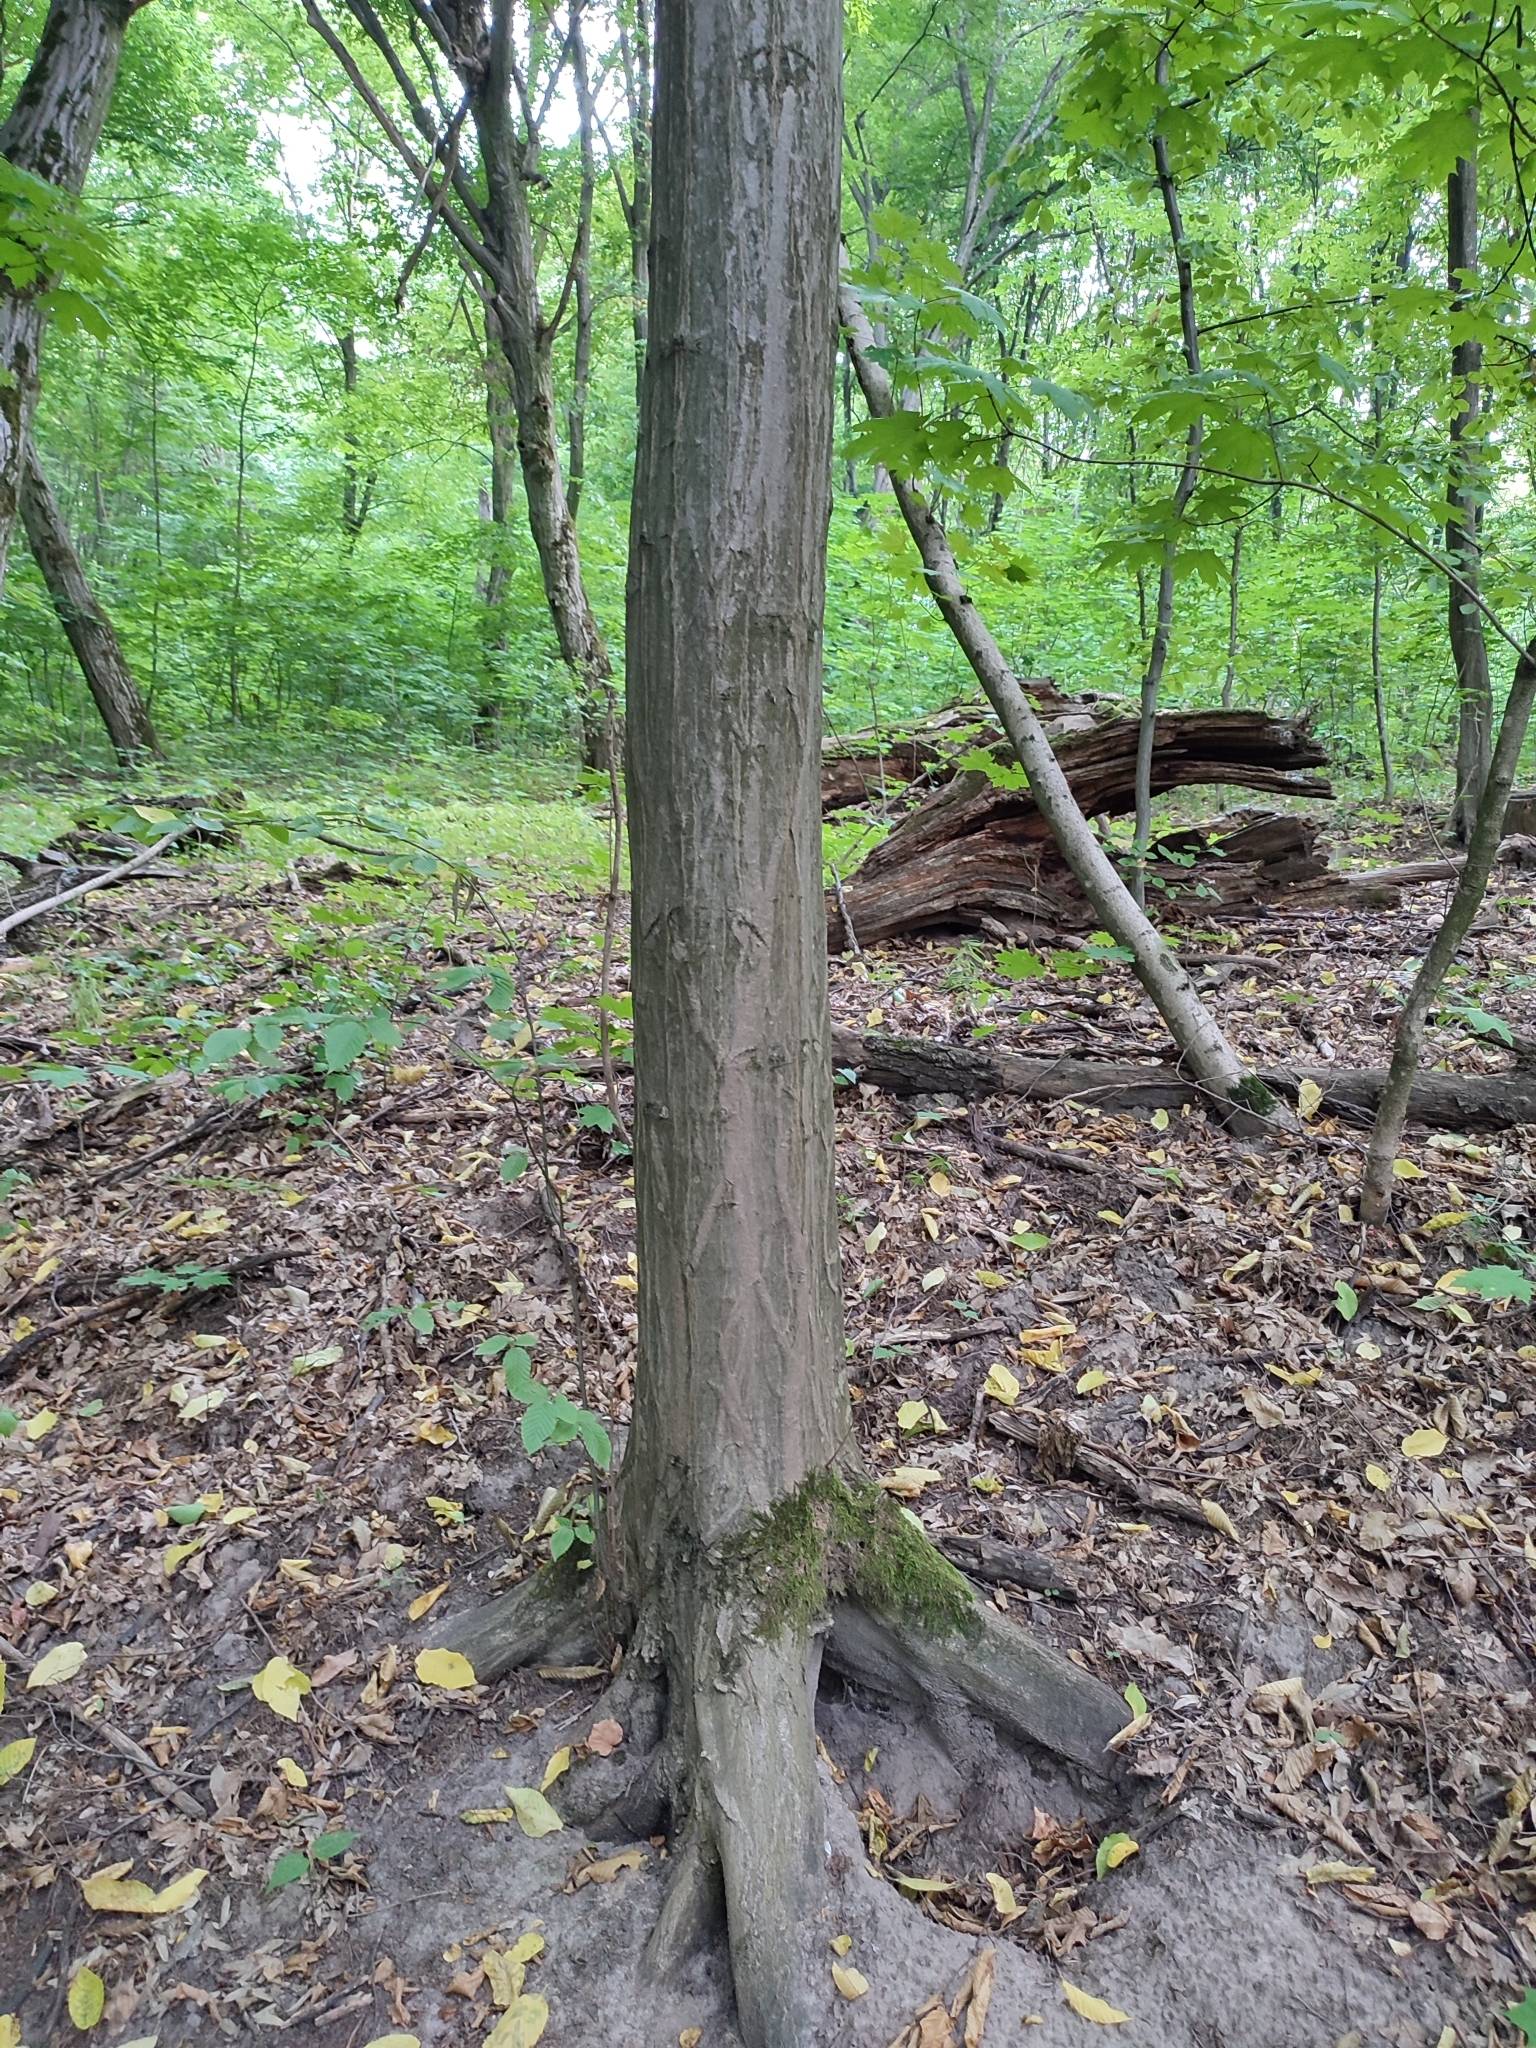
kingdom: Plantae
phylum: Tracheophyta
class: Magnoliopsida
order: Fagales
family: Betulaceae
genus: Carpinus
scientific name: Carpinus betulus
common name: Hornbeam
